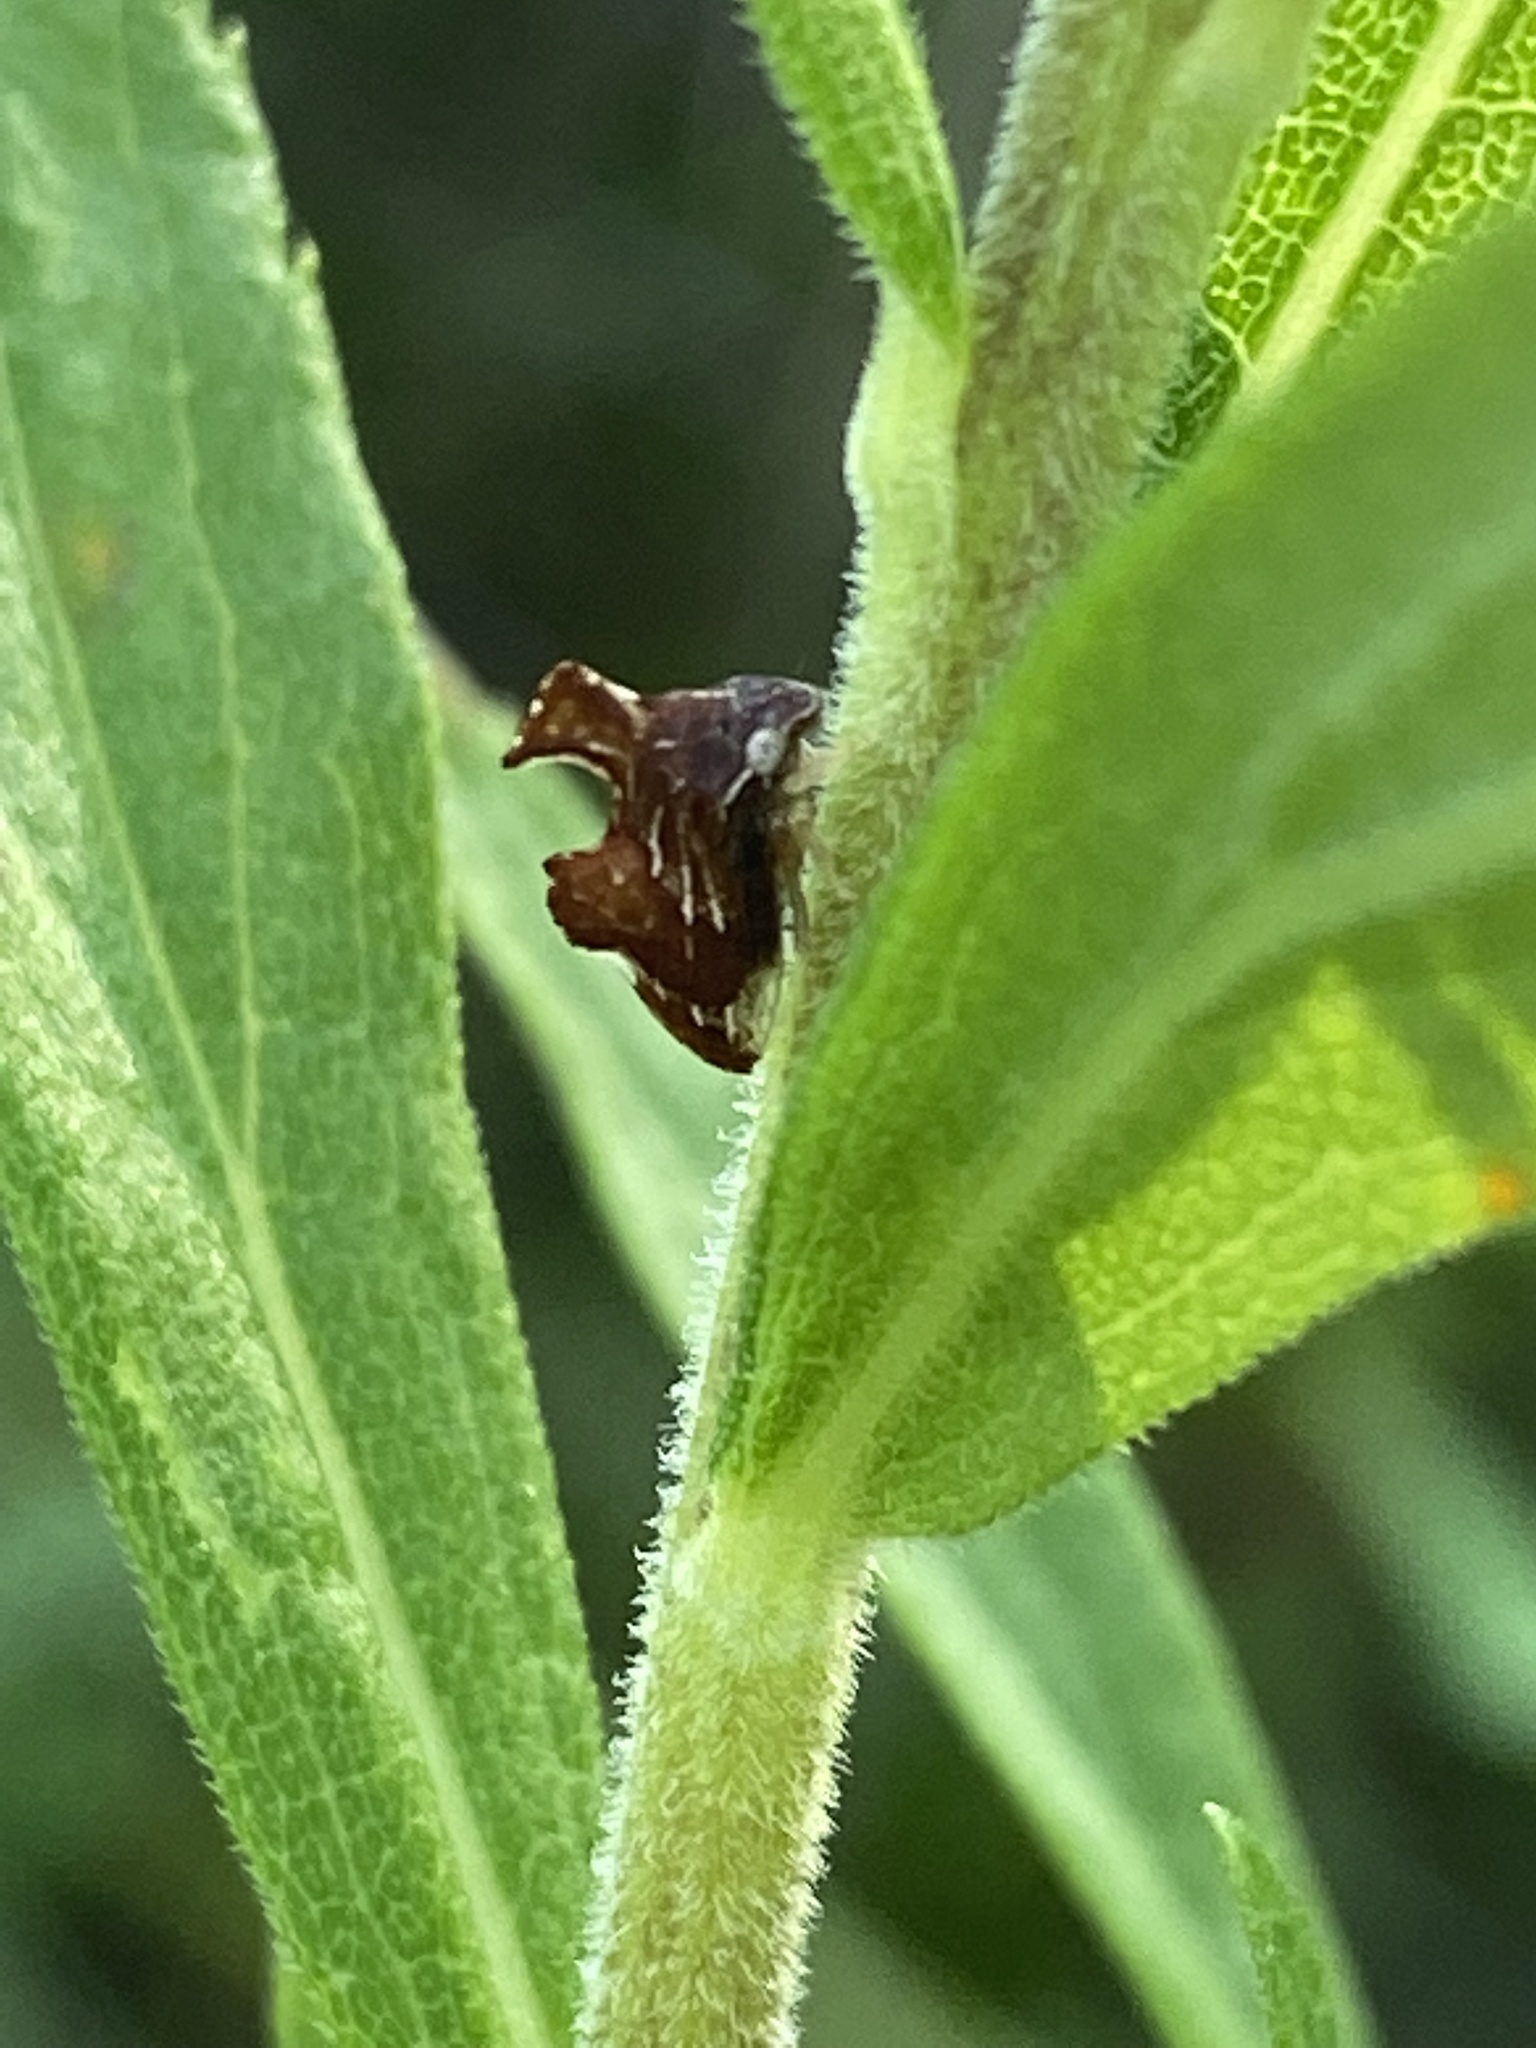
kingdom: Animalia
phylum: Arthropoda
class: Insecta
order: Hemiptera
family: Membracidae
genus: Entylia
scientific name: Entylia carinata
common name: Keeled treehopper
